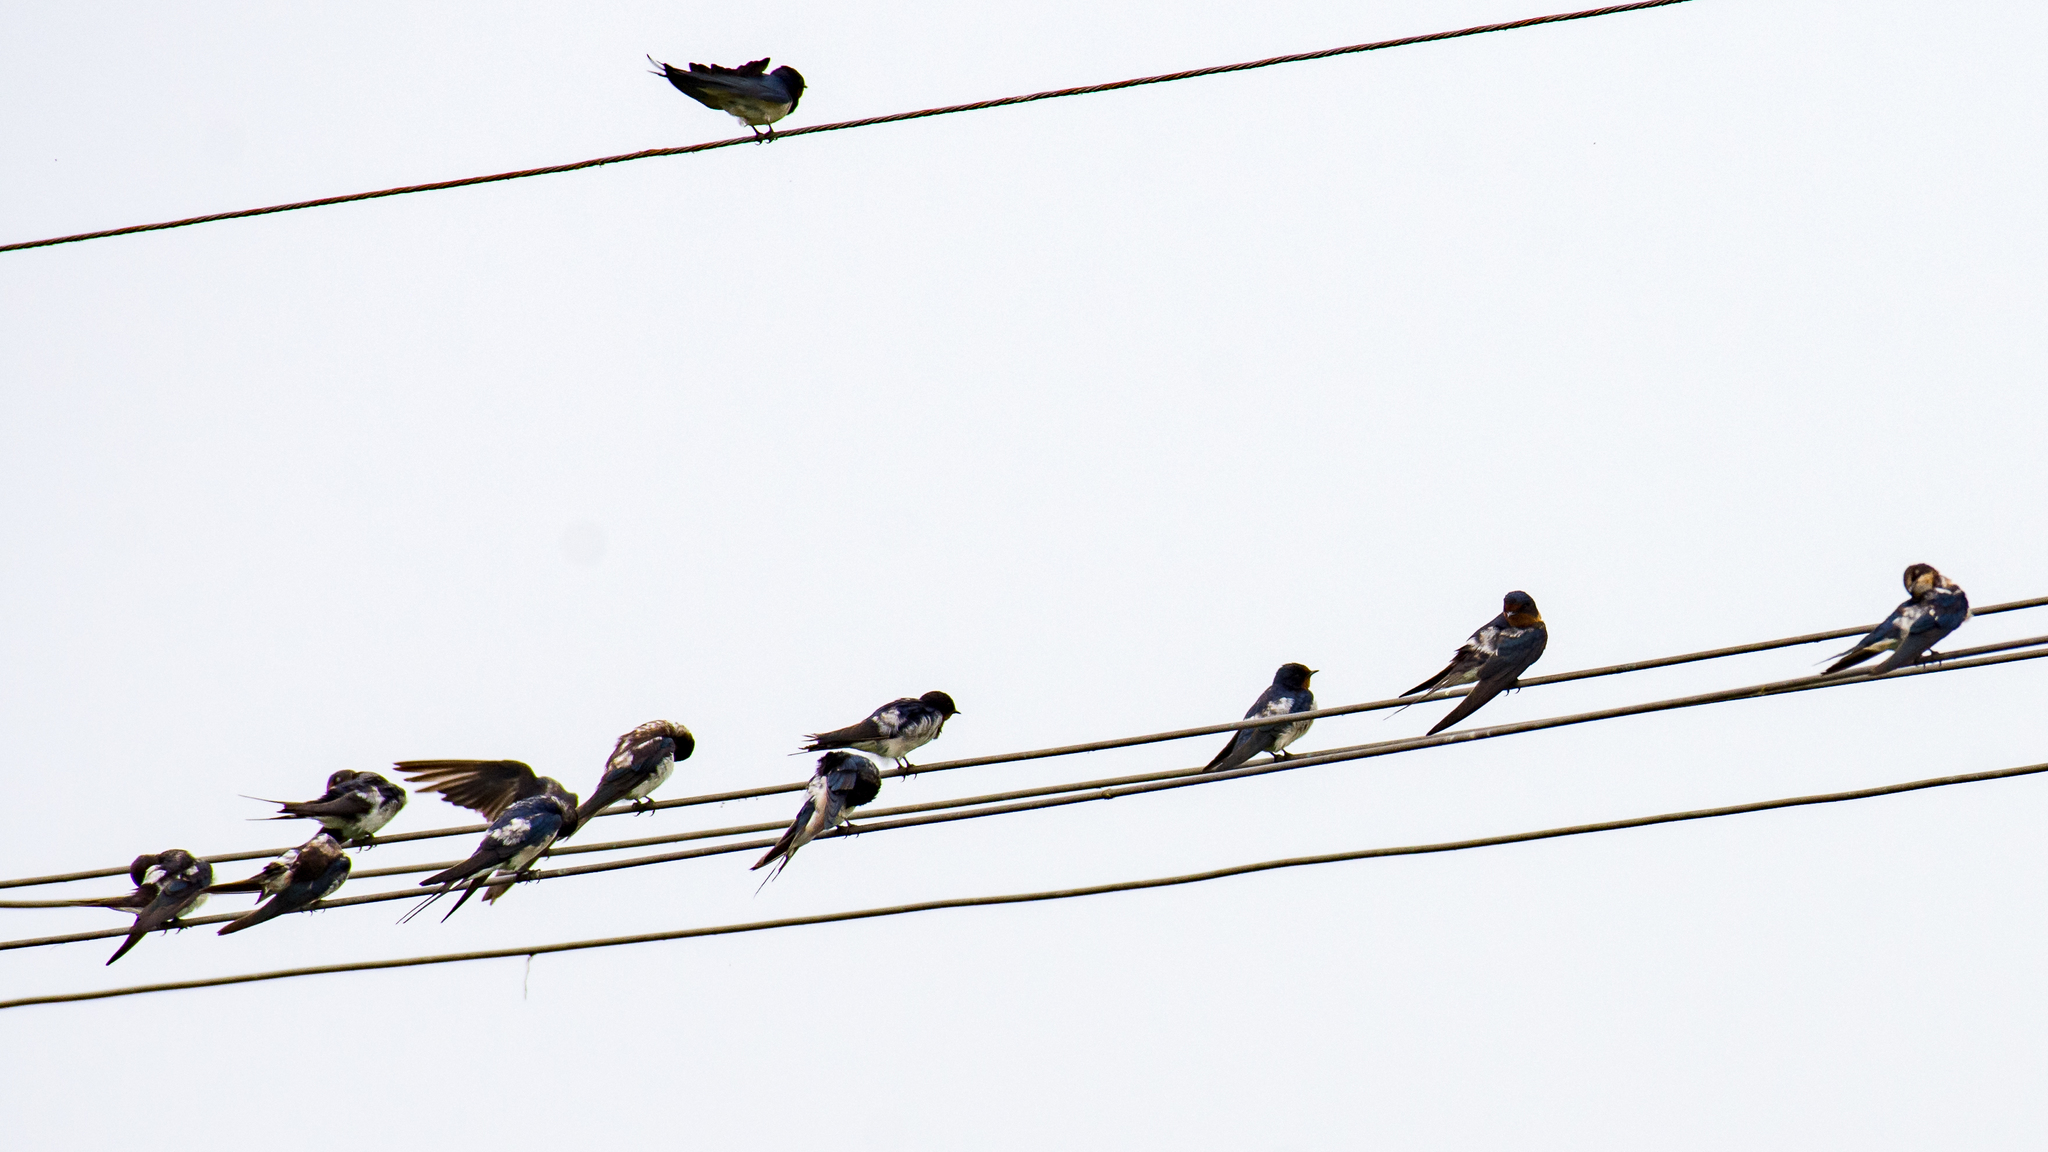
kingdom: Animalia
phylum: Chordata
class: Aves
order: Passeriformes
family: Hirundinidae
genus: Hirundo
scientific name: Hirundo rustica
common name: Barn swallow
